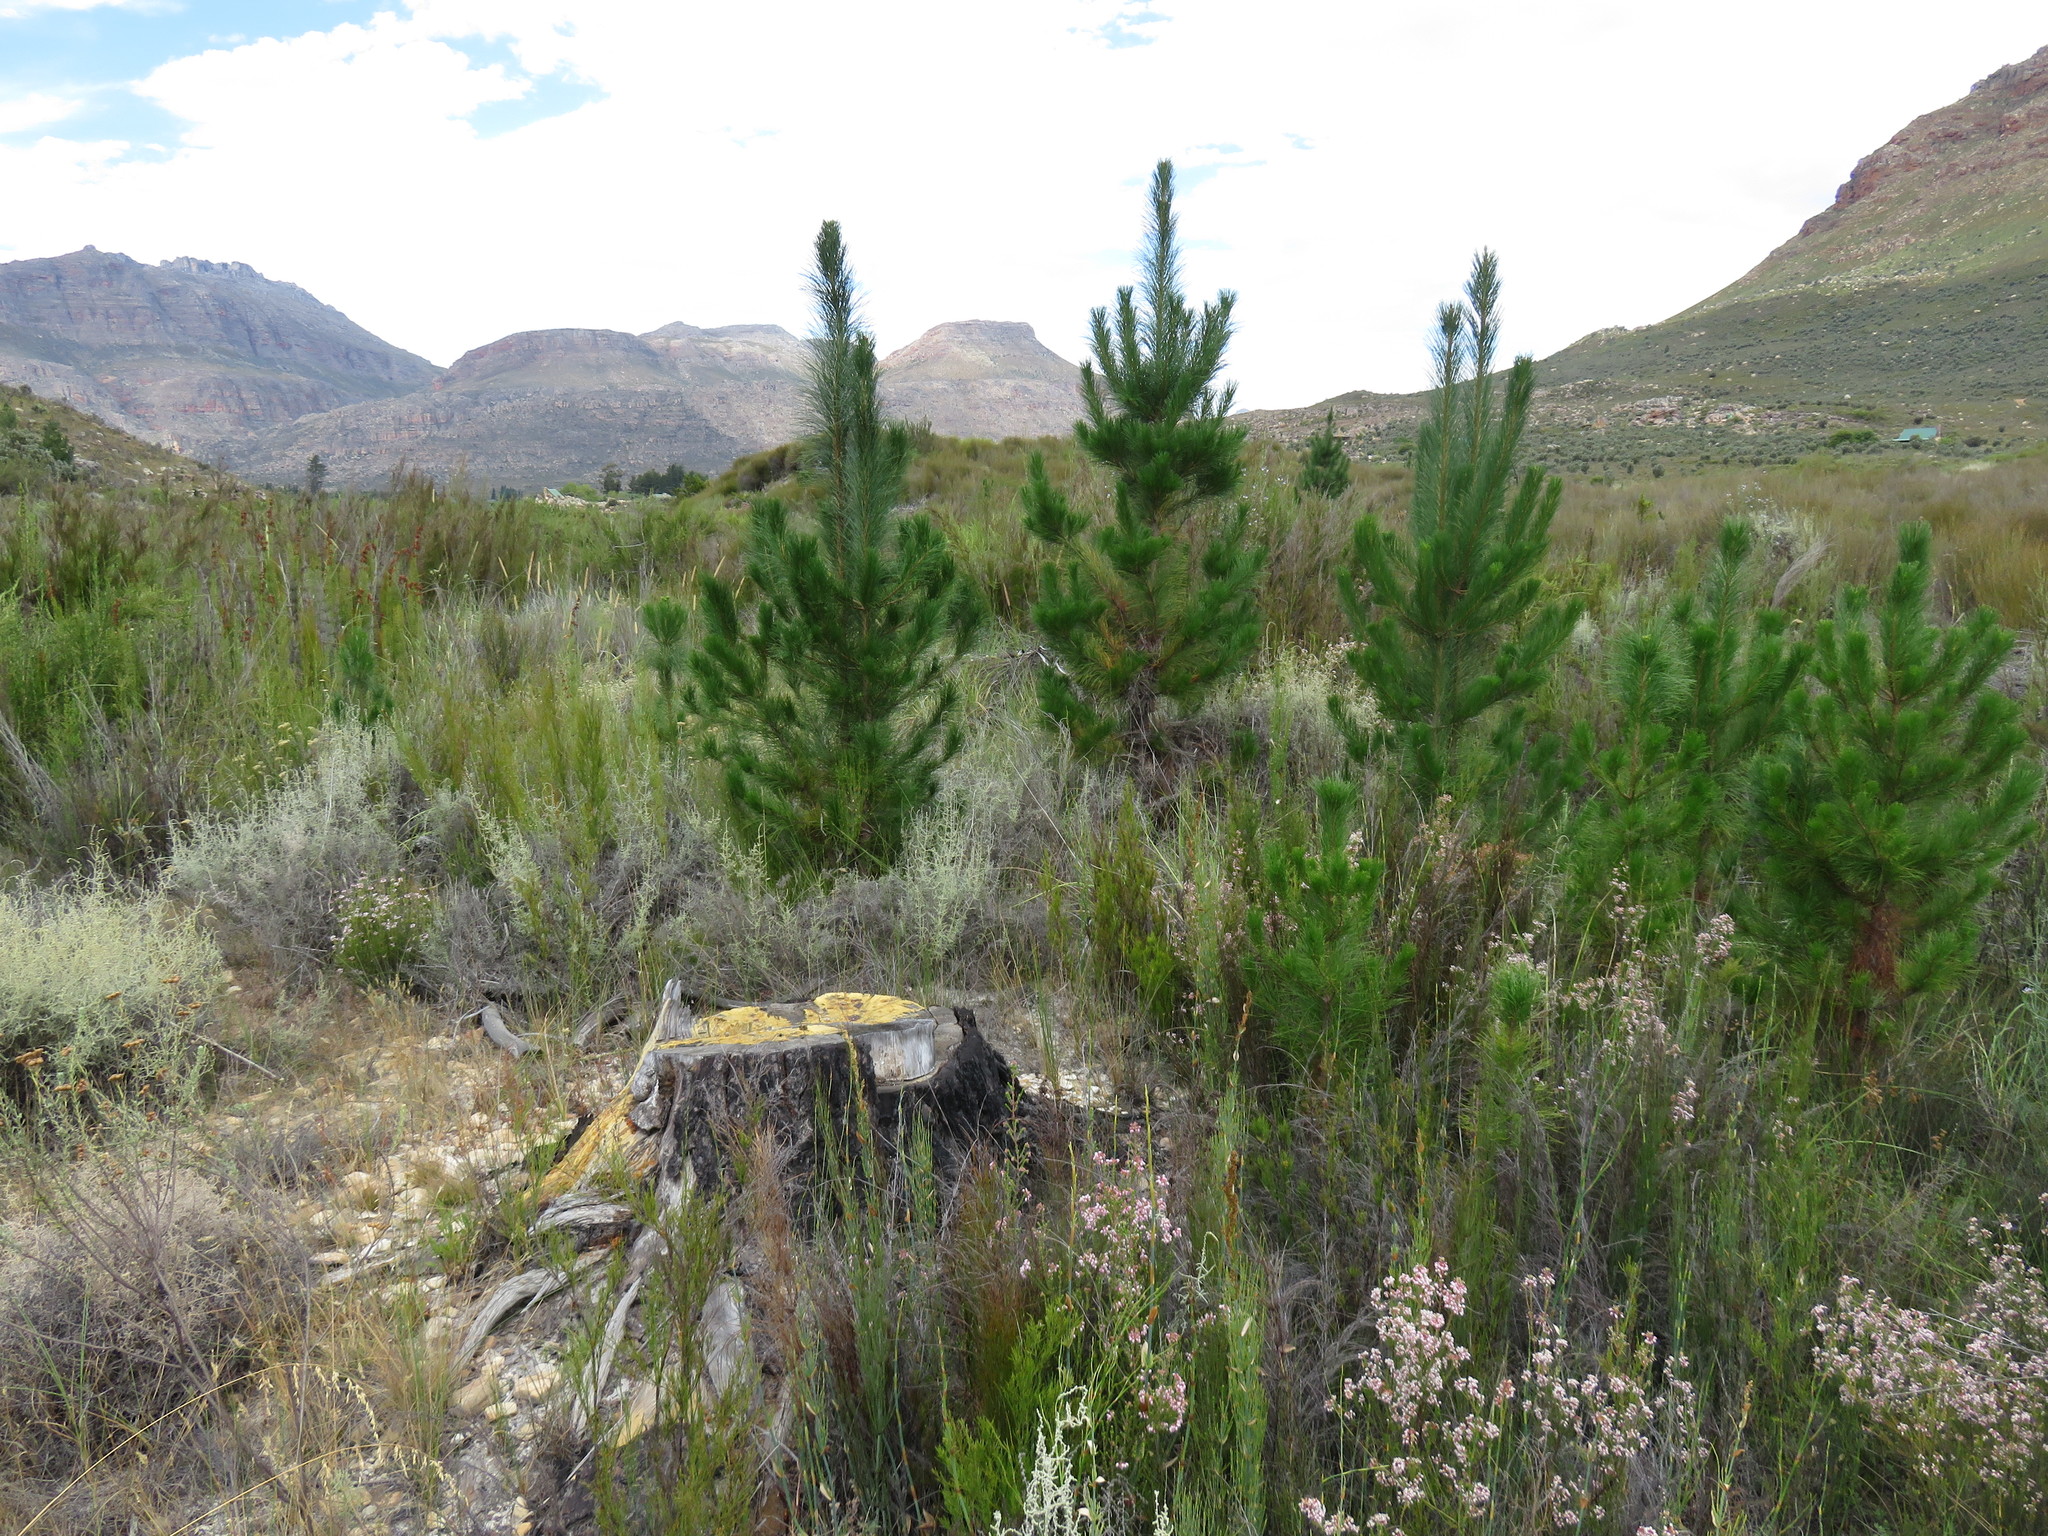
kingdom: Plantae
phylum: Tracheophyta
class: Pinopsida
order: Pinales
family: Pinaceae
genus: Pinus
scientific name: Pinus radiata
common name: Monterey pine
